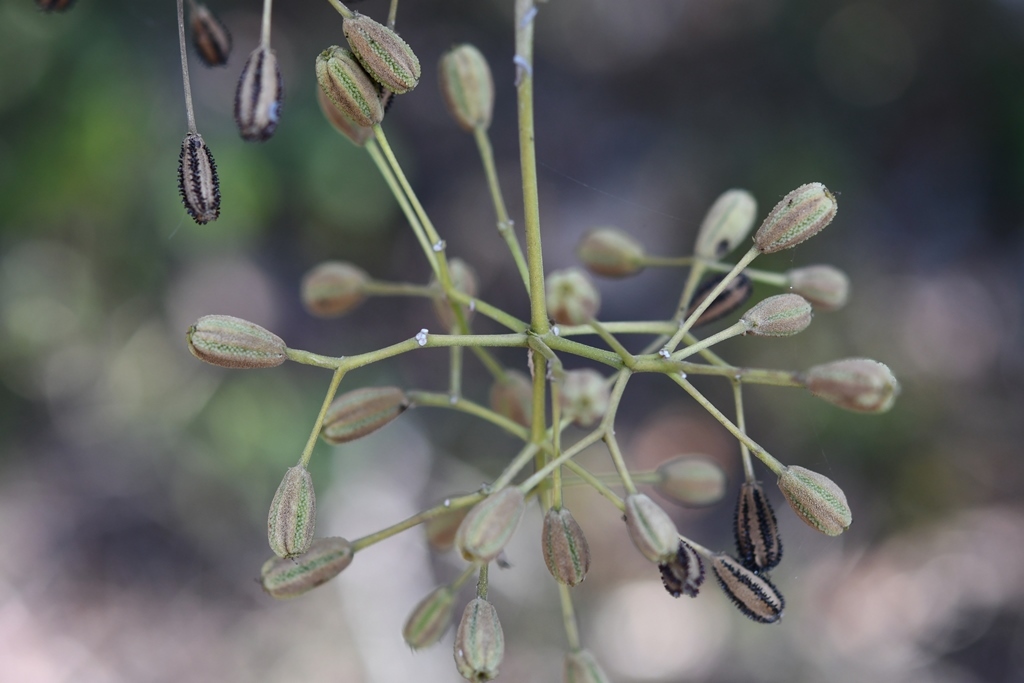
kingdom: Plantae
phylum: Tracheophyta
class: Magnoliopsida
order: Caryophyllales
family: Nyctaginaceae
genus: Pisonia
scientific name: Pisonia aculeata
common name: Cockspur vine
